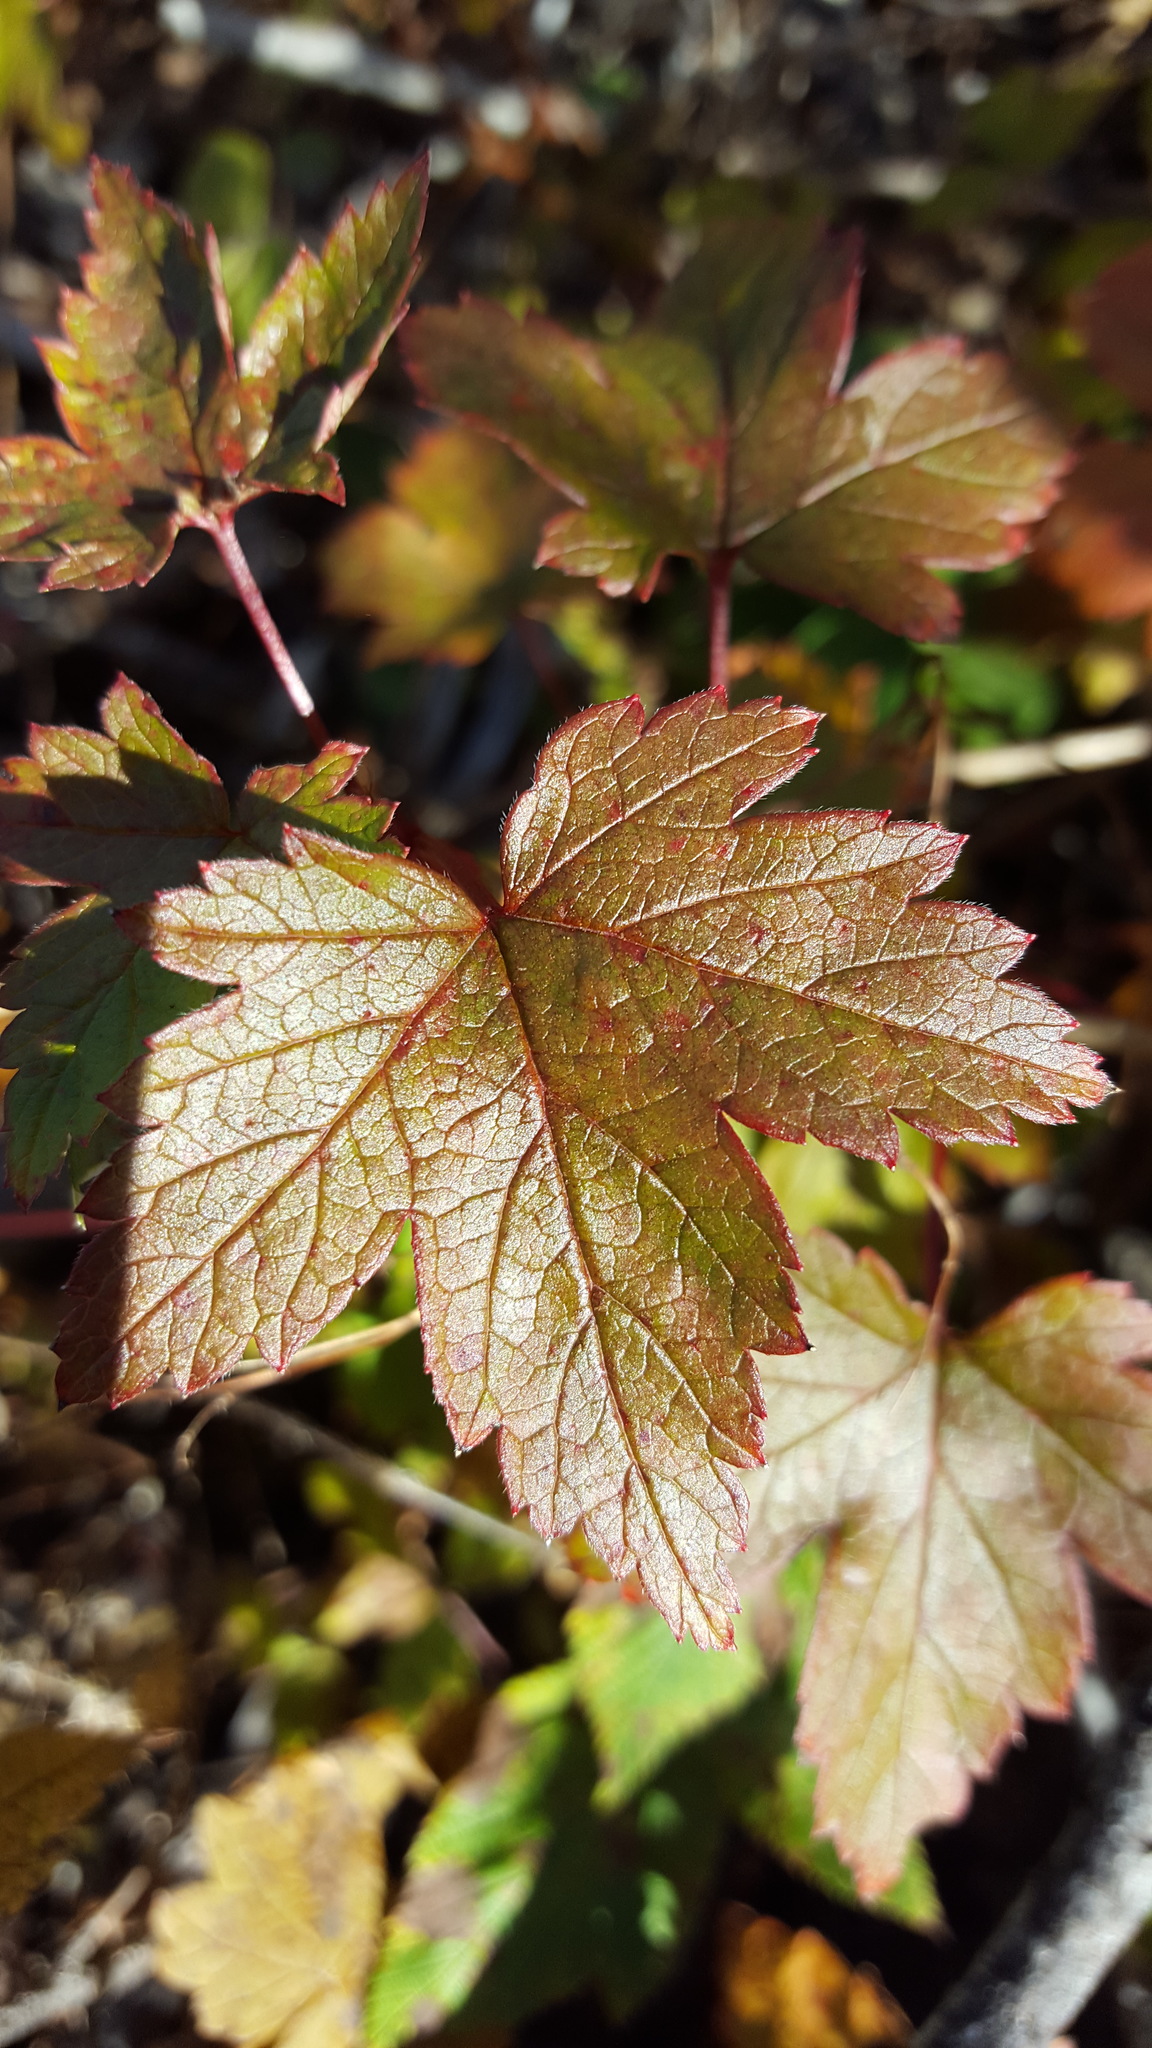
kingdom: Plantae
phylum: Tracheophyta
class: Magnoliopsida
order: Saxifragales
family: Grossulariaceae
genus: Ribes
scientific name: Ribes glandulosum
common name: Skunk currant
